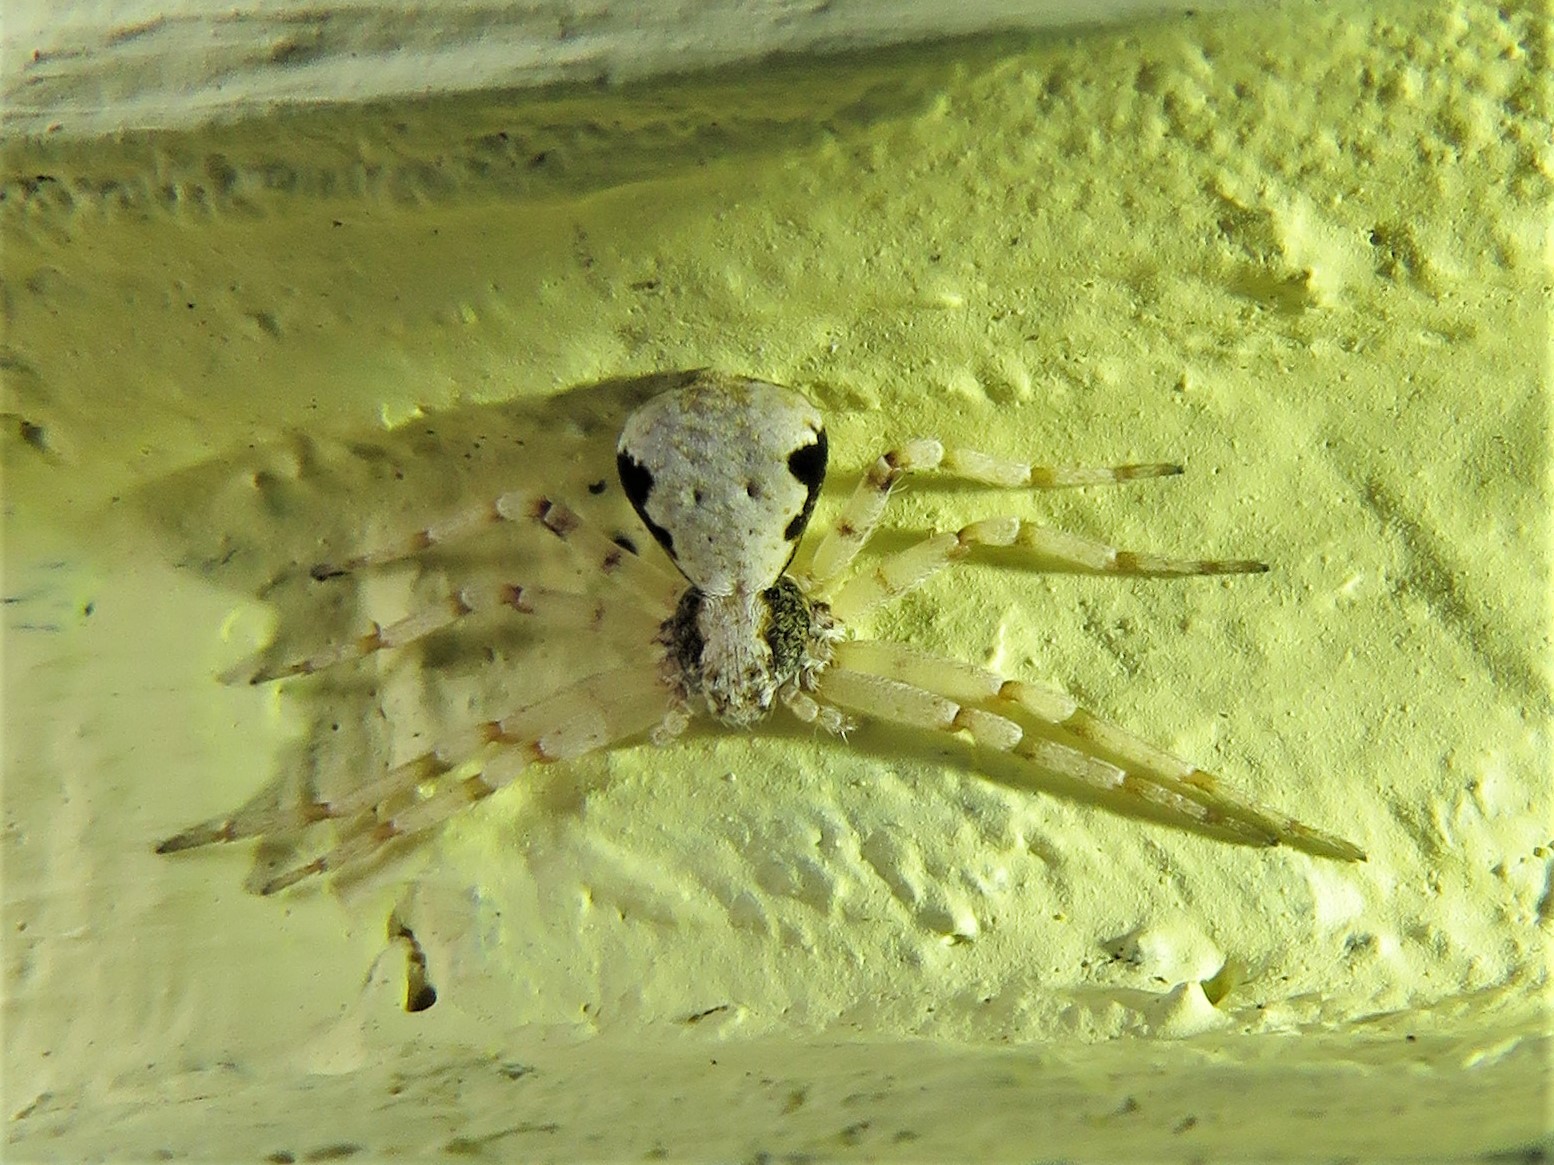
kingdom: Animalia
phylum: Arthropoda
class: Arachnida
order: Araneae
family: Philodromidae
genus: Philodromus
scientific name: Philodromus marxi
